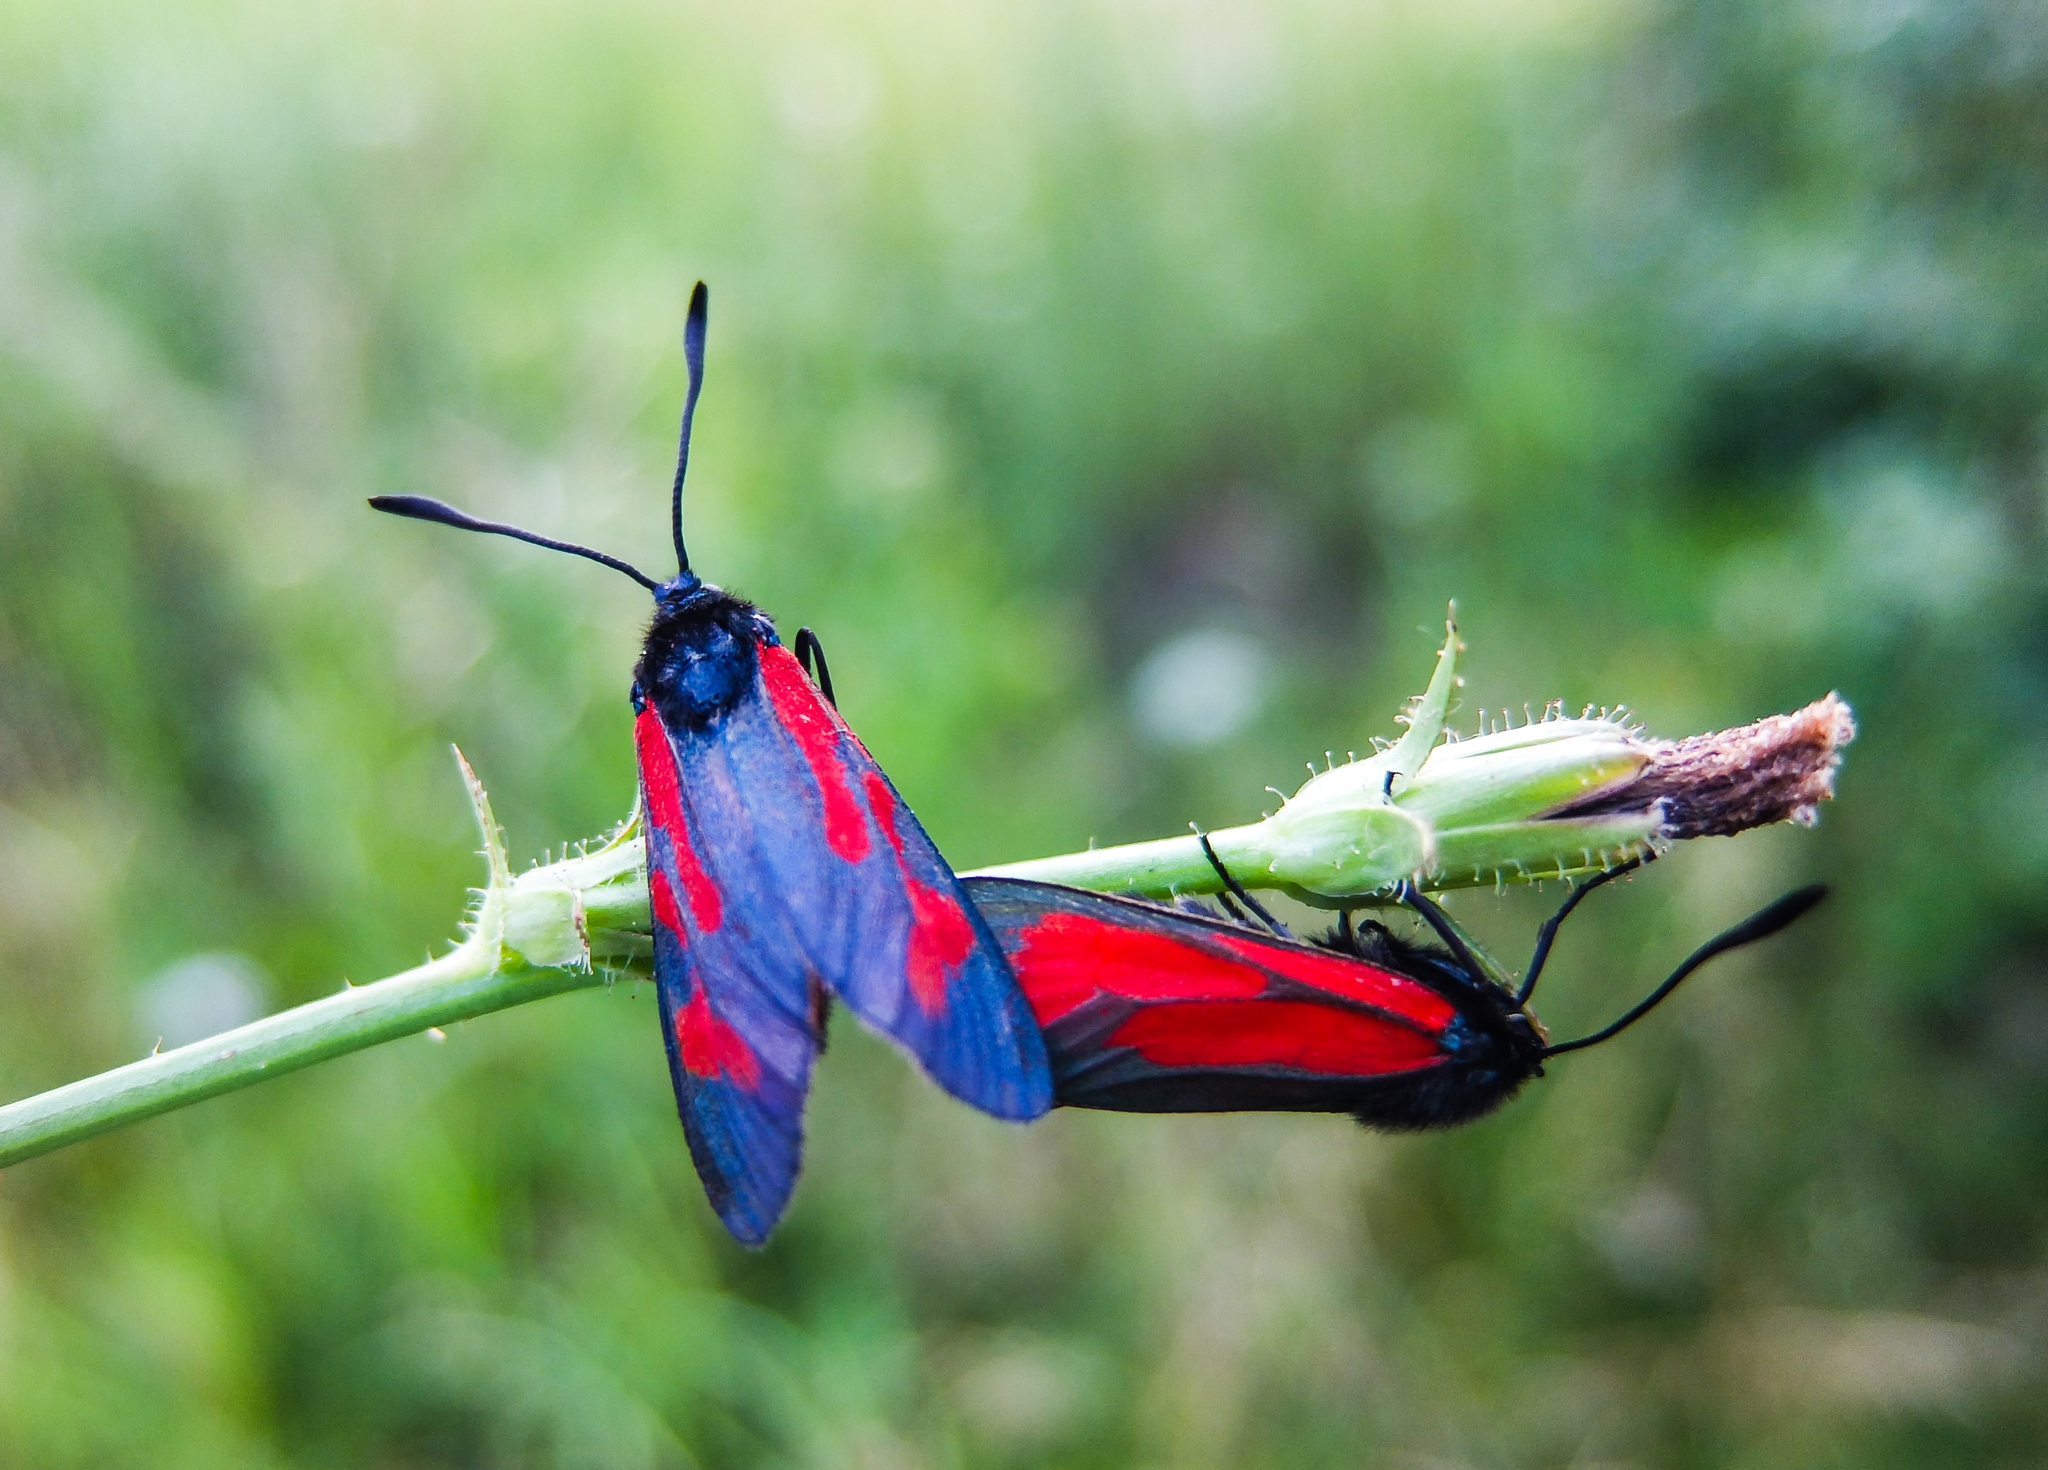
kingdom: Animalia
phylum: Arthropoda
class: Insecta
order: Lepidoptera
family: Zygaenidae
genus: Zygaena
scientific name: Zygaena minos
